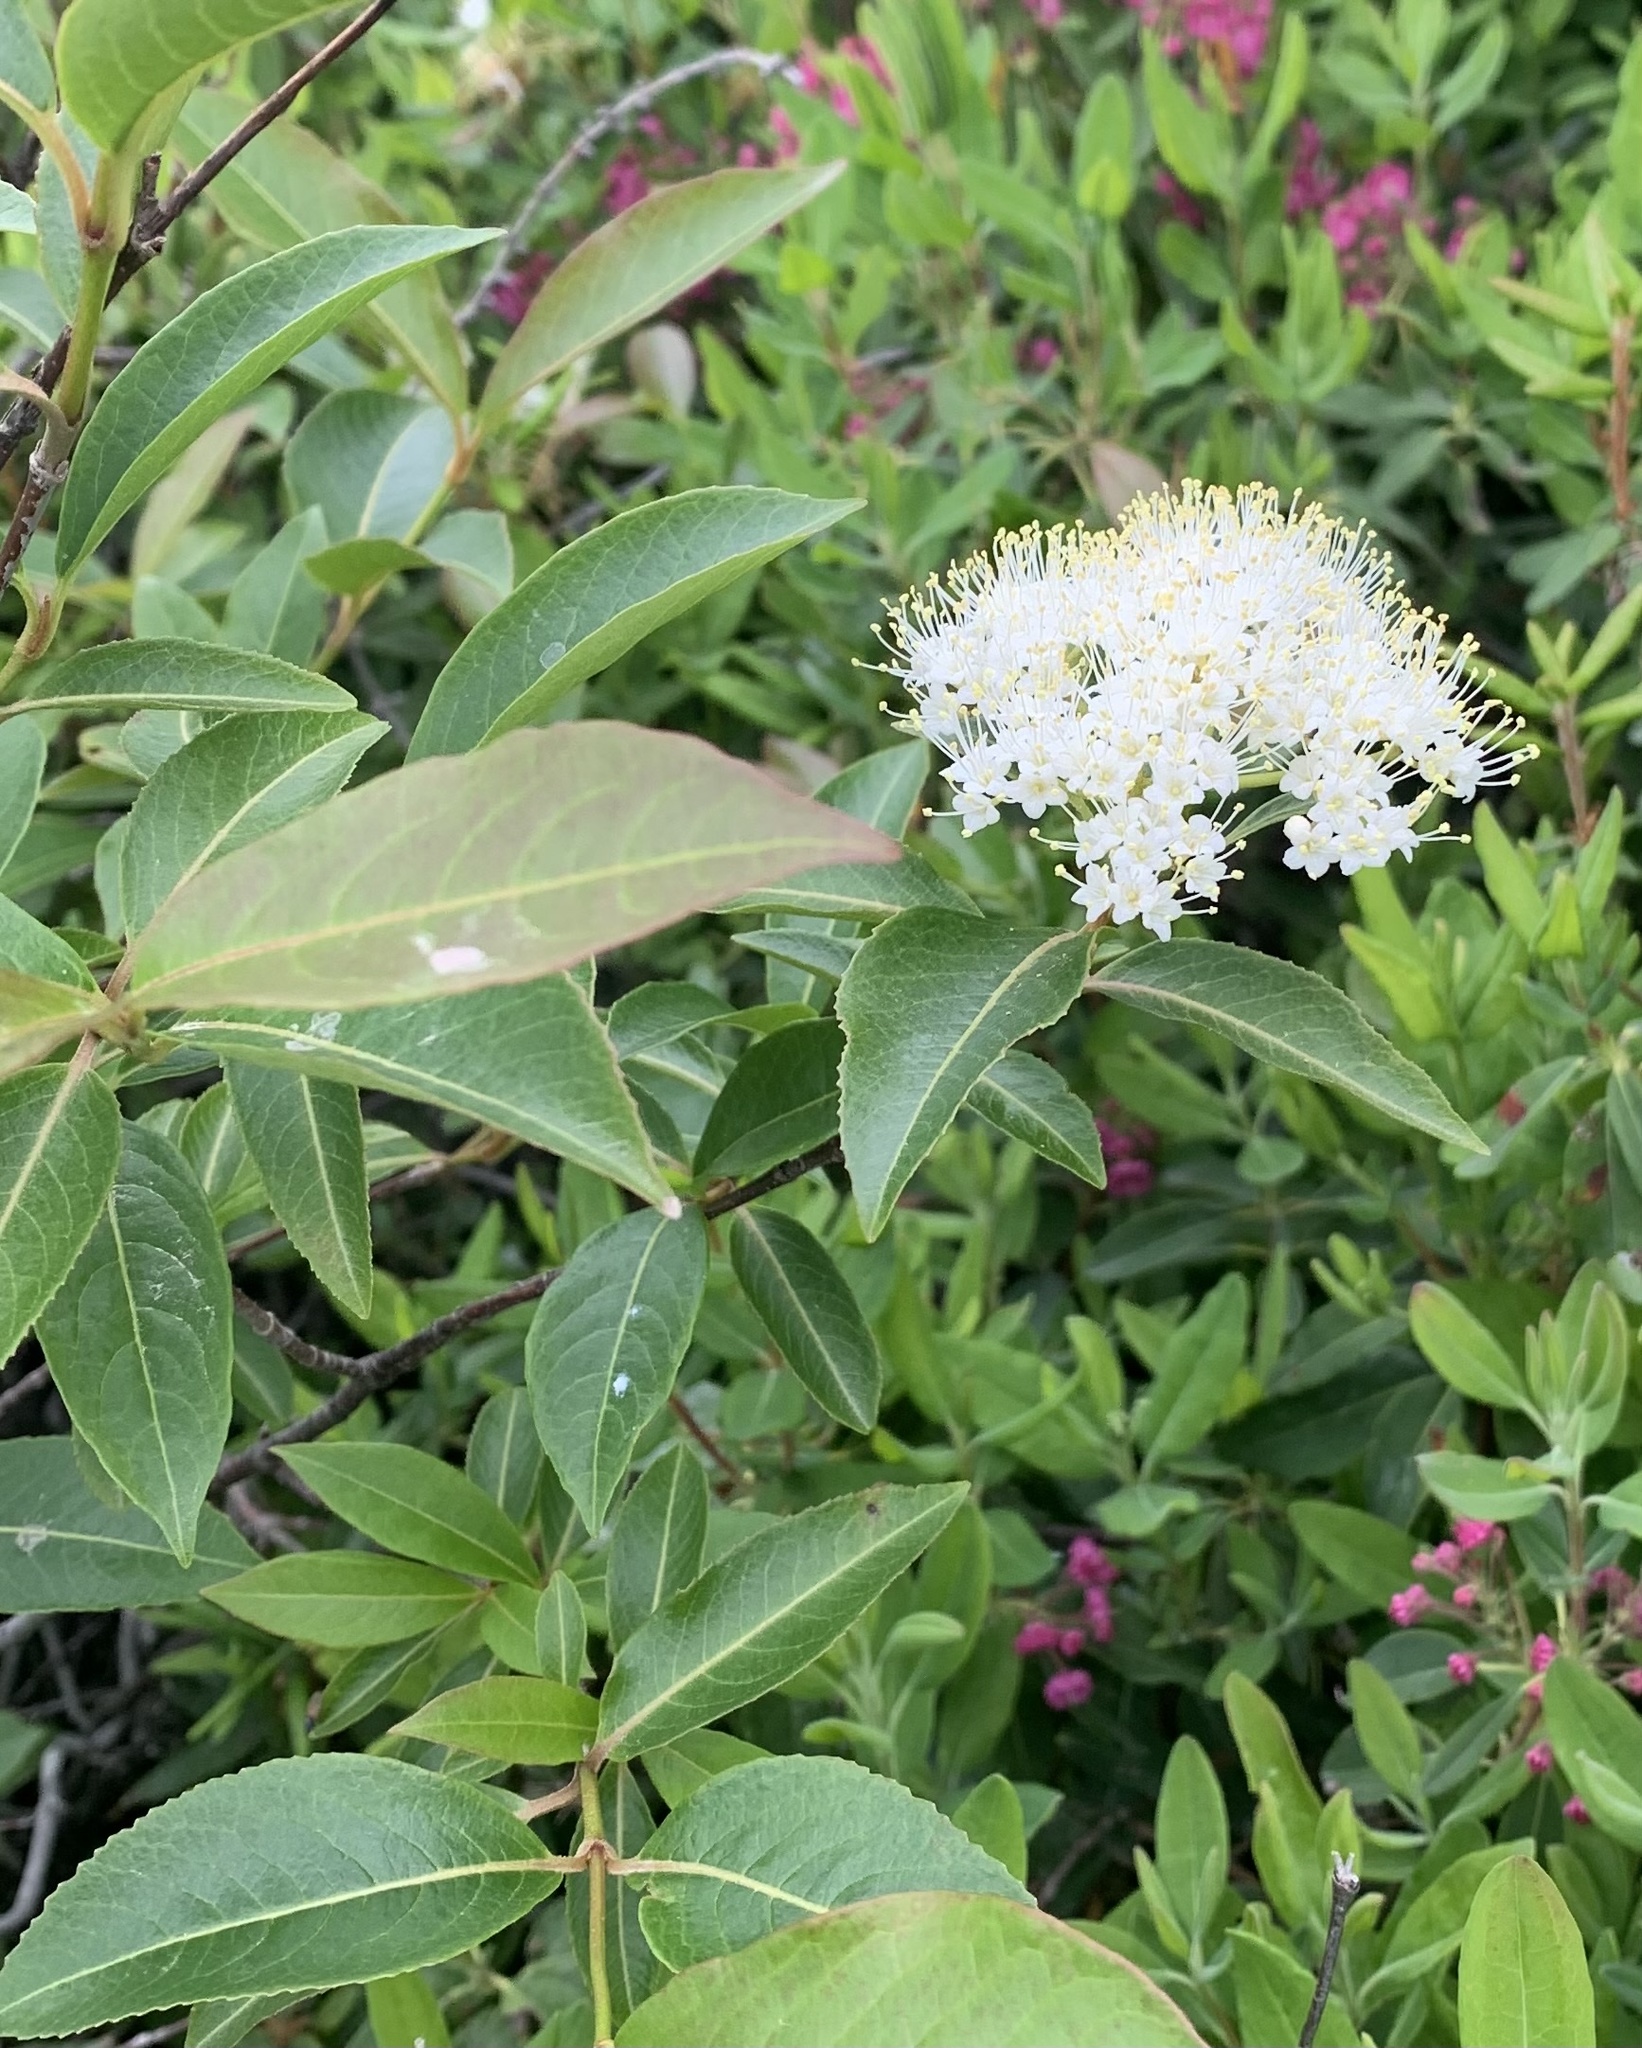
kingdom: Plantae
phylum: Tracheophyta
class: Magnoliopsida
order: Dipsacales
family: Viburnaceae
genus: Viburnum
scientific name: Viburnum cassinoides
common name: Swamp haw
